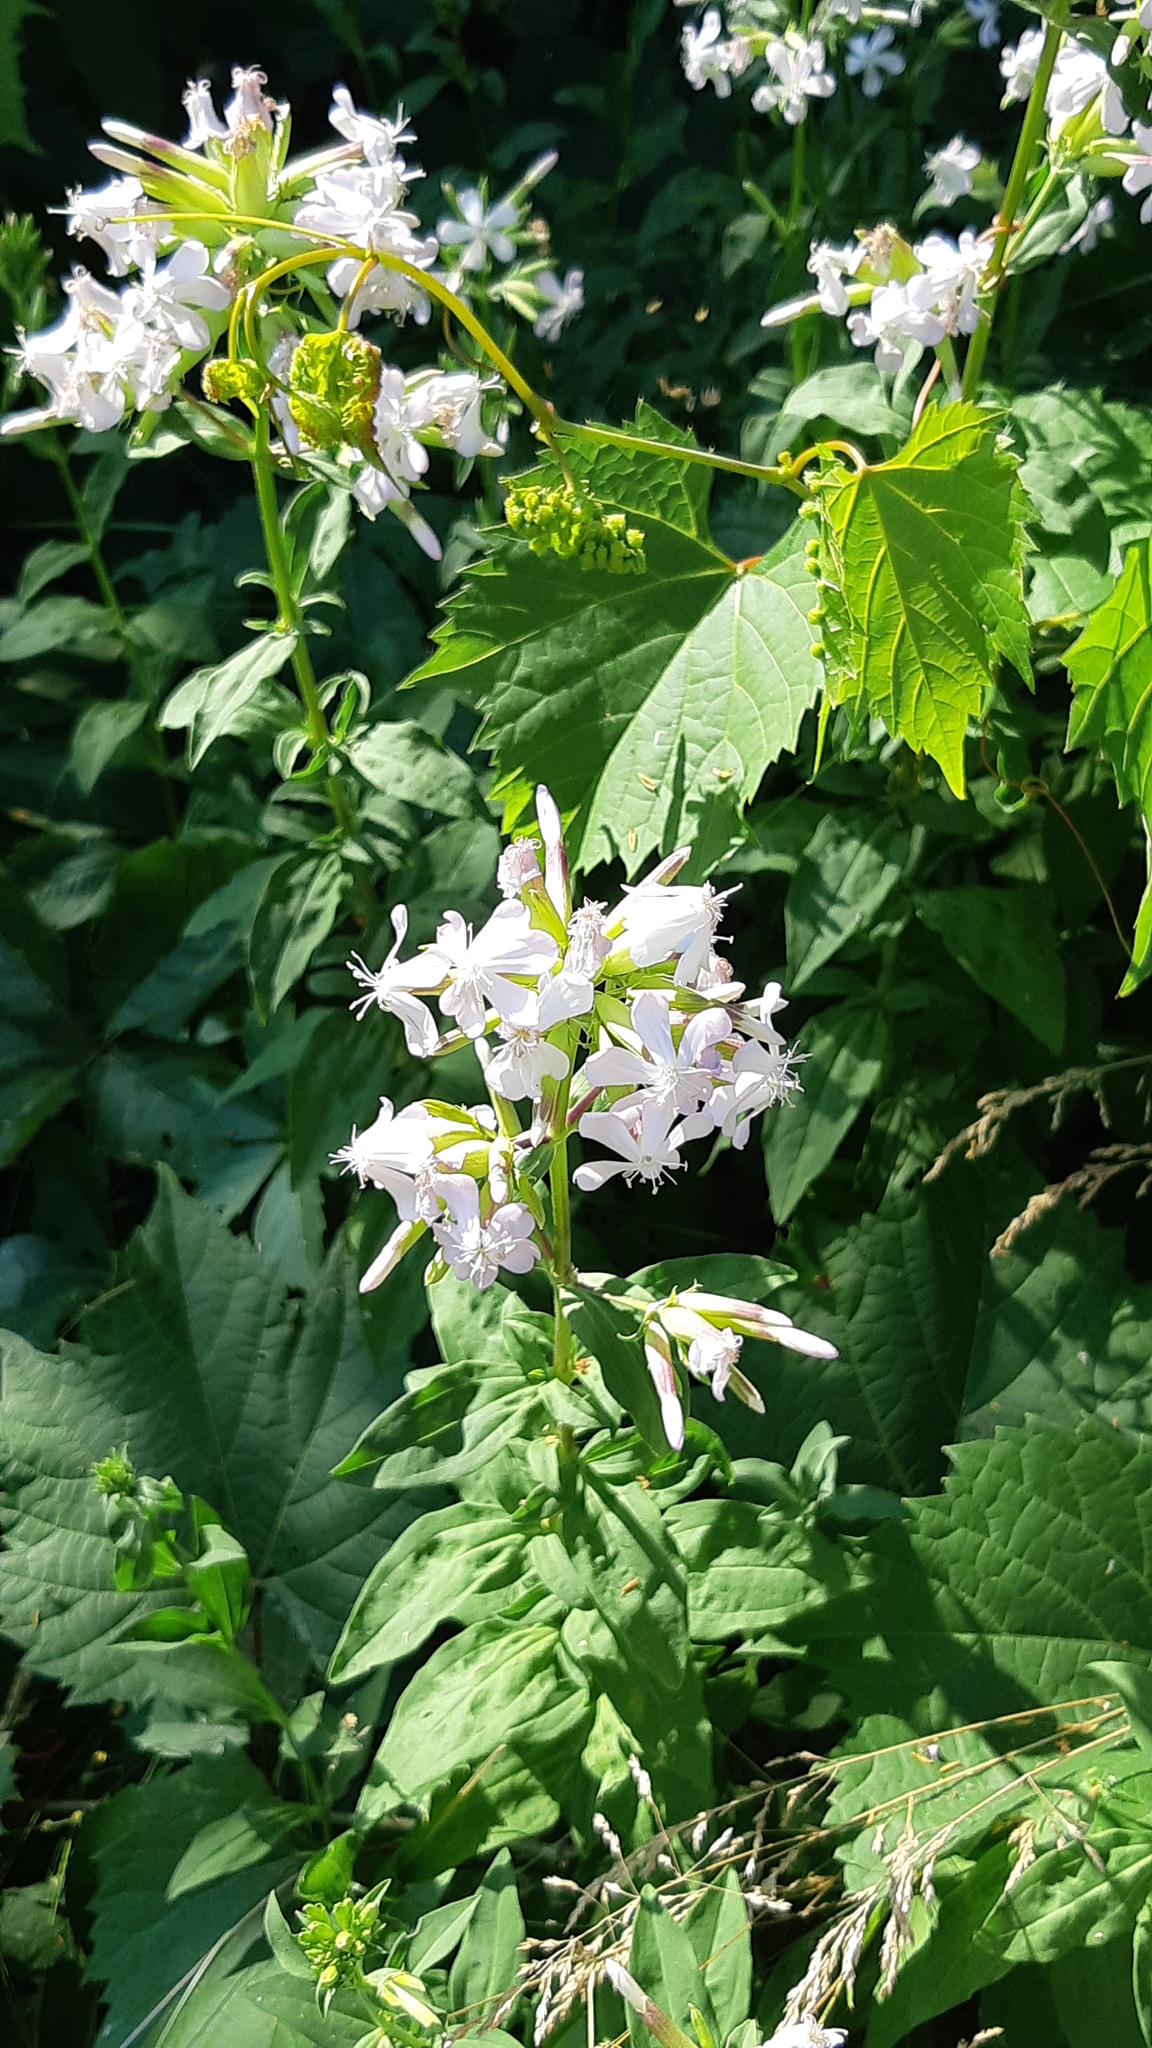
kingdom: Plantae
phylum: Tracheophyta
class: Magnoliopsida
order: Caryophyllales
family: Caryophyllaceae
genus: Saponaria
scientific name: Saponaria officinalis
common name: Soapwort
